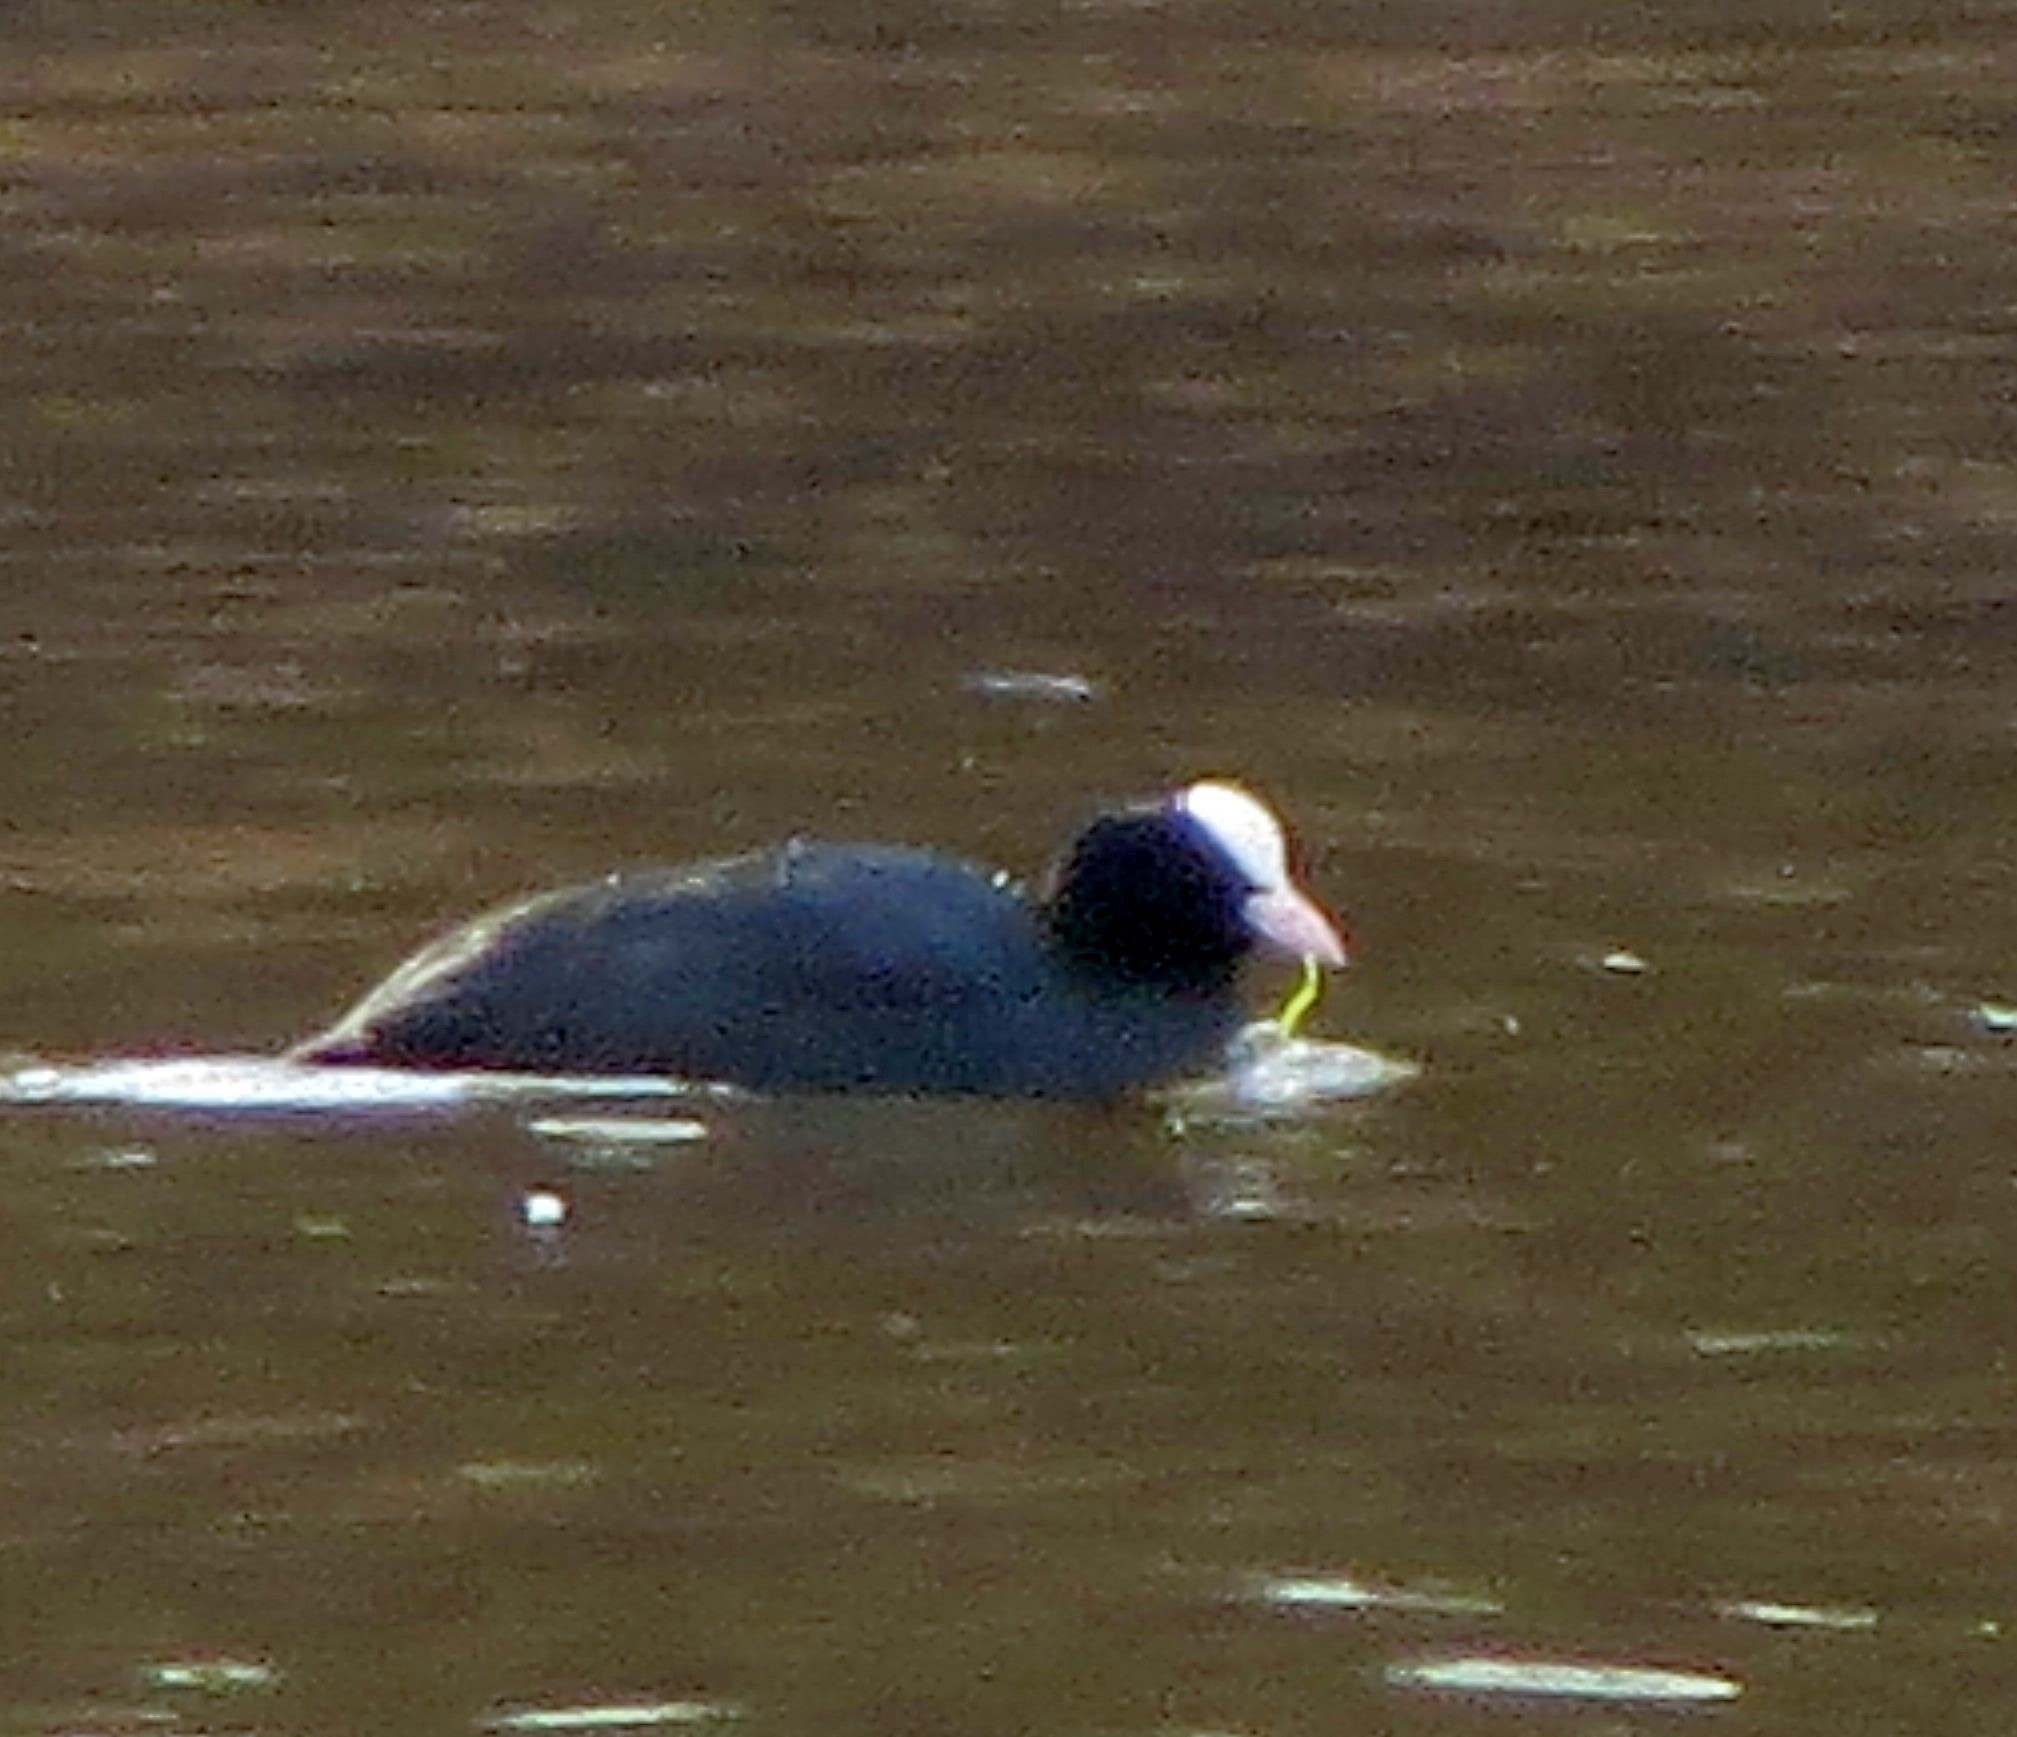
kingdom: Animalia
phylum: Chordata
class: Aves
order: Gruiformes
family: Rallidae
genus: Fulica
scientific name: Fulica atra
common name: Eurasian coot
